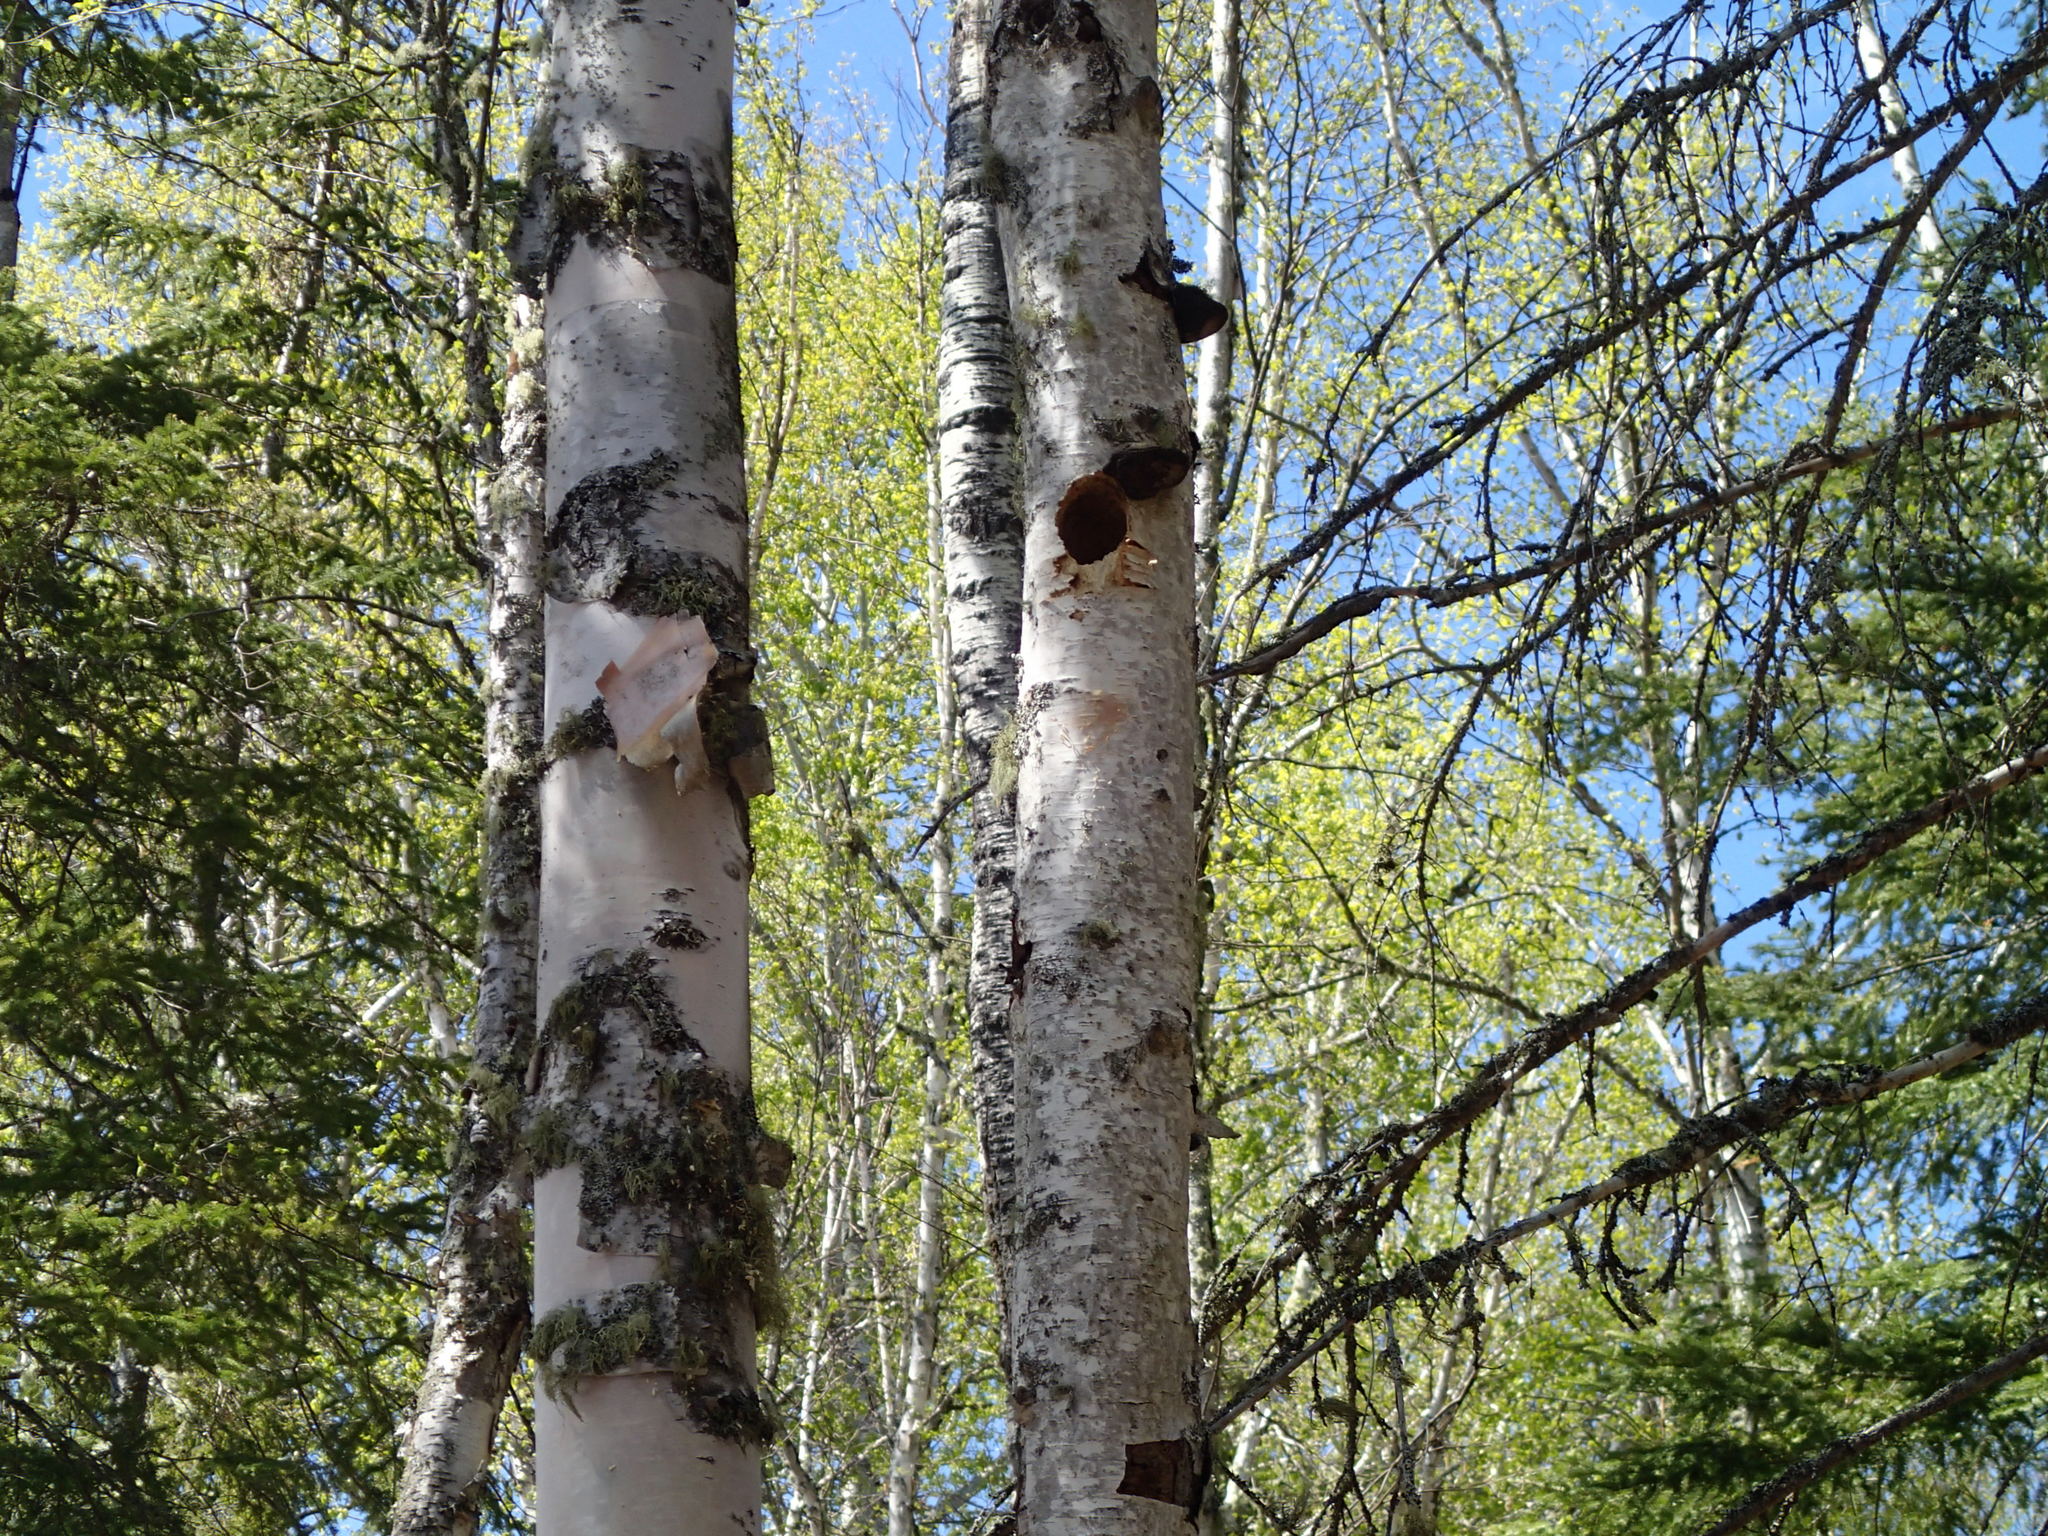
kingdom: Plantae
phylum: Tracheophyta
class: Magnoliopsida
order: Fagales
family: Betulaceae
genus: Betula
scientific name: Betula papyrifera
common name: Paper birch
